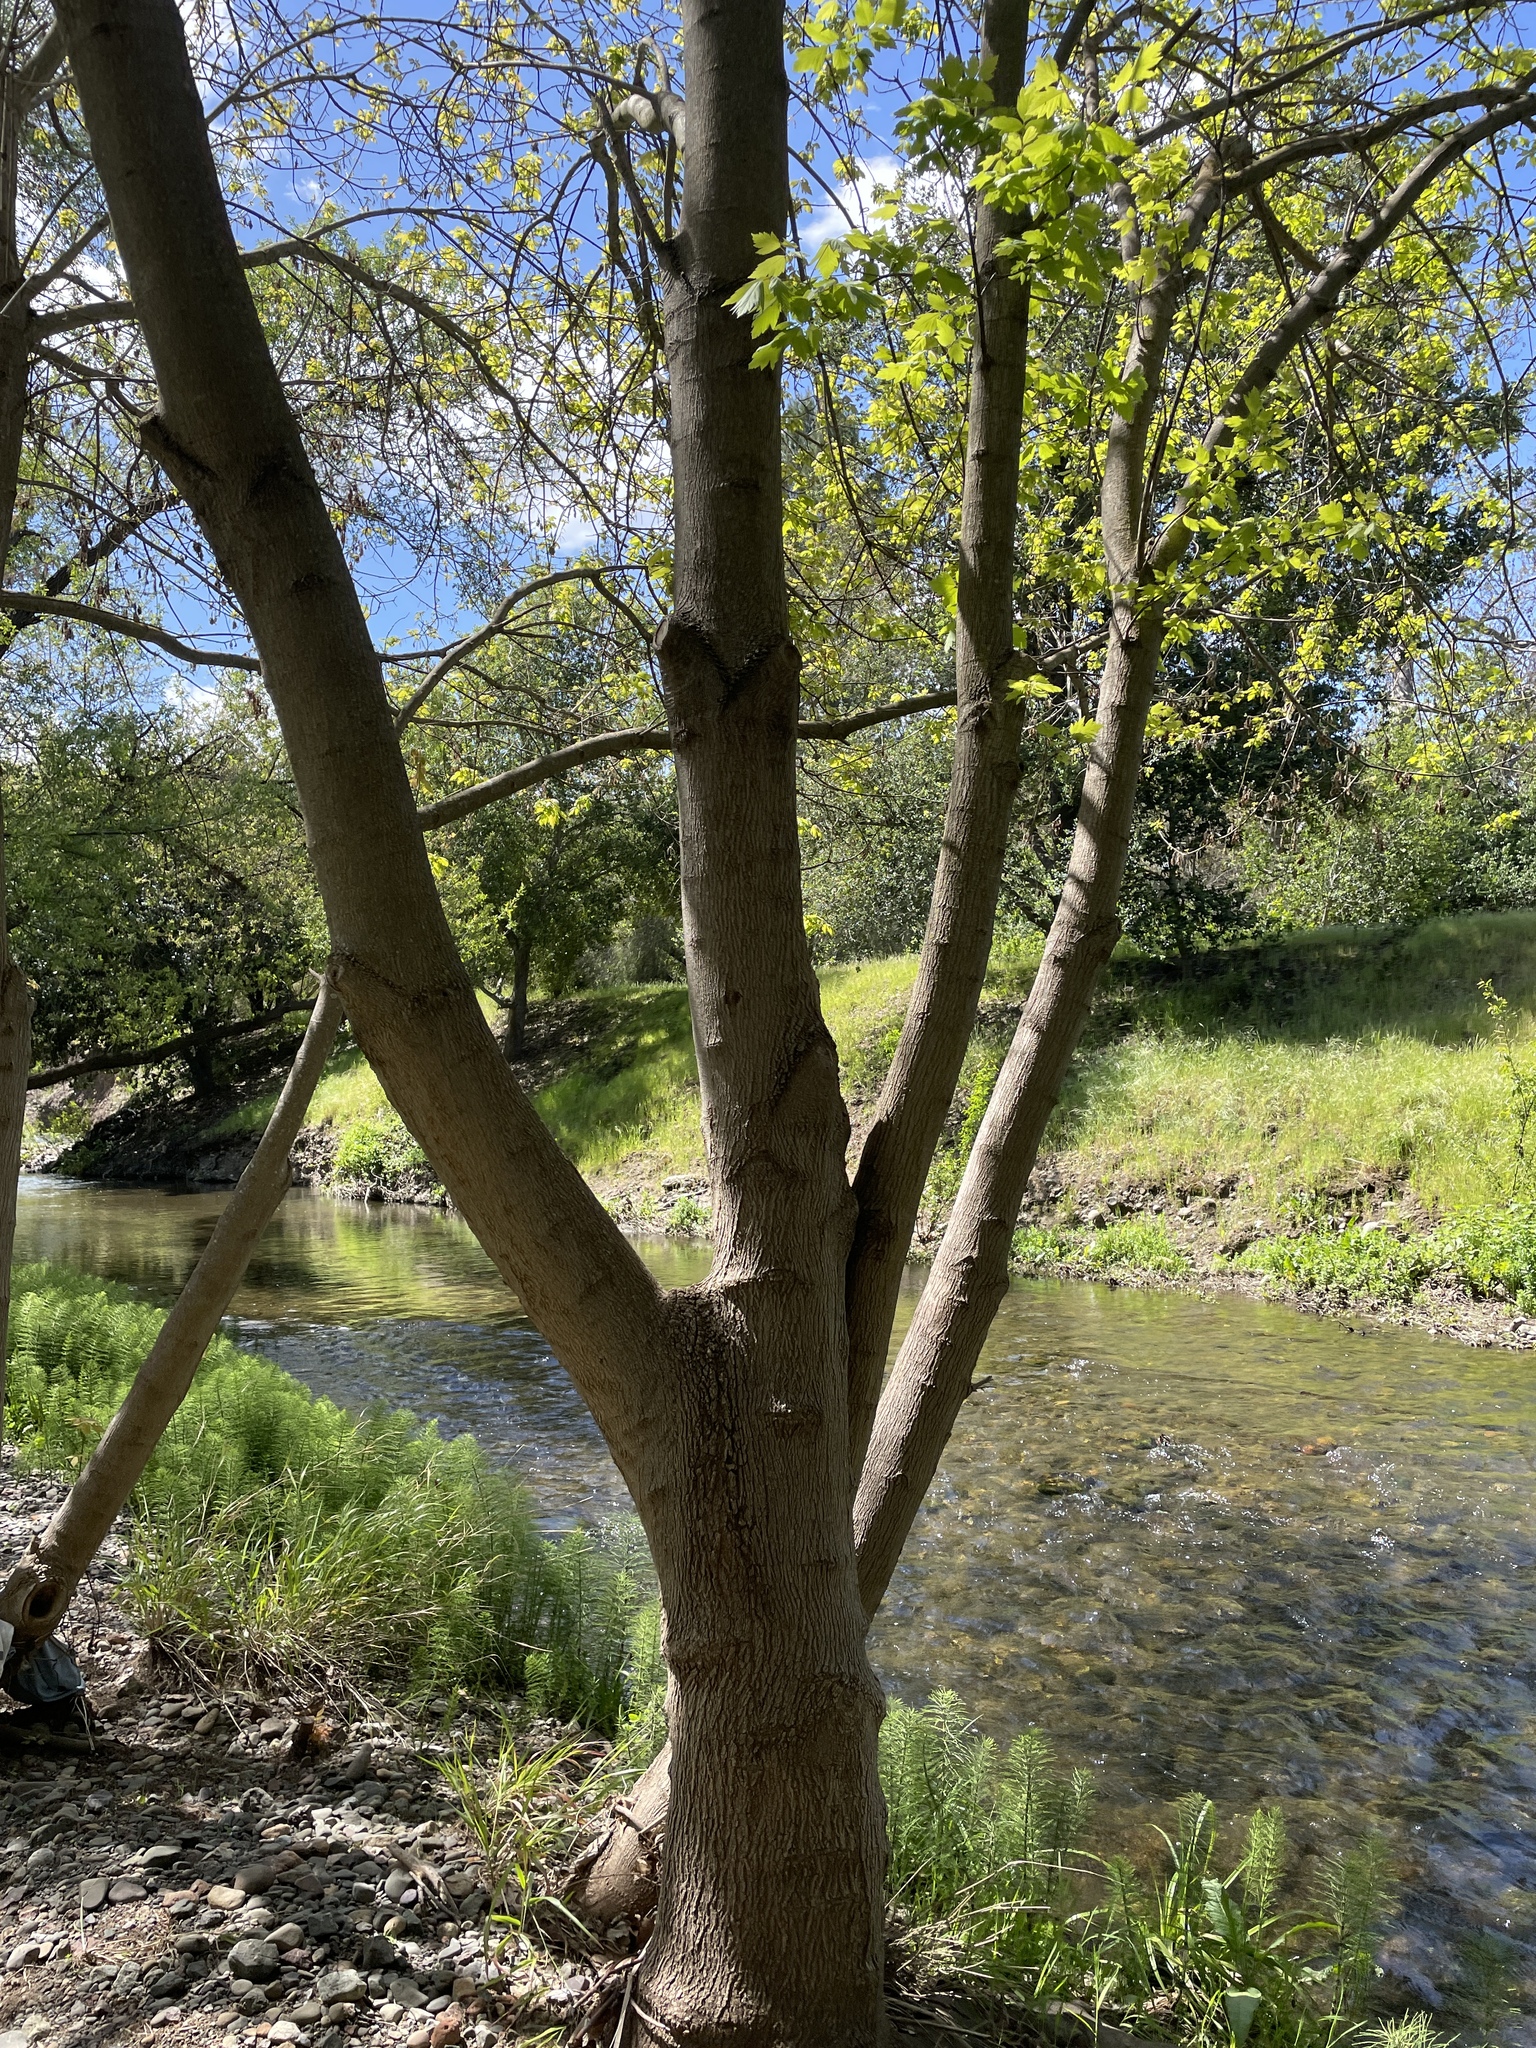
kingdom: Plantae
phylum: Tracheophyta
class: Magnoliopsida
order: Sapindales
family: Sapindaceae
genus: Acer
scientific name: Acer negundo
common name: Ashleaf maple
